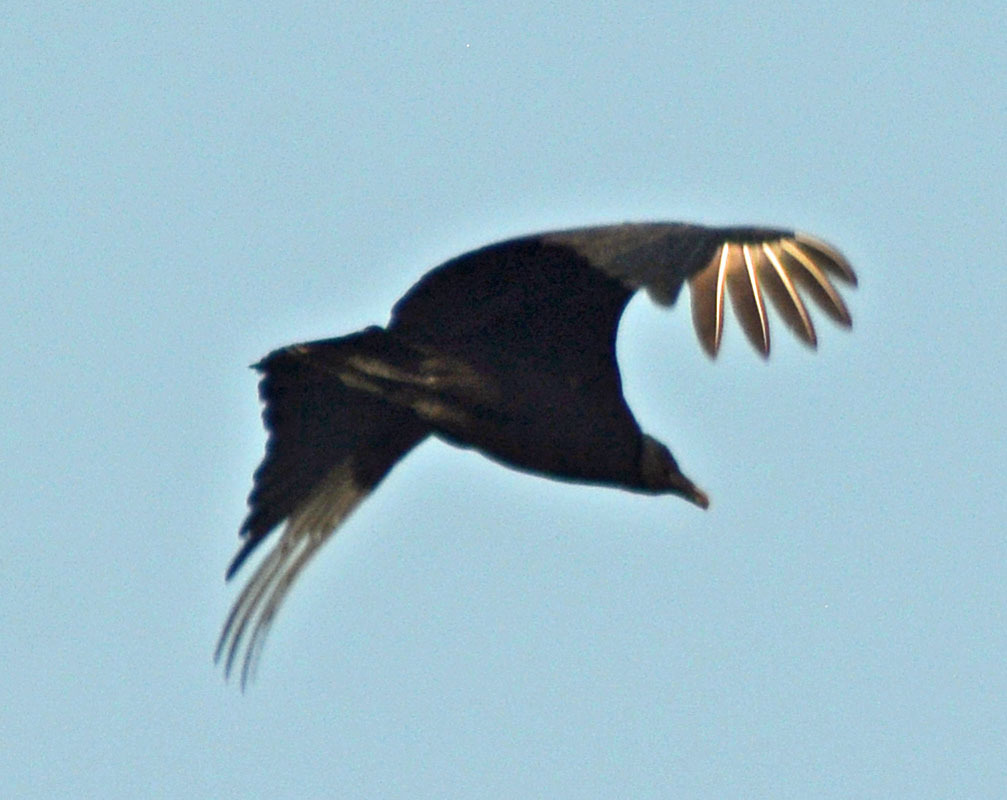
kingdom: Animalia
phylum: Chordata
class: Aves
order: Accipitriformes
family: Cathartidae
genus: Coragyps
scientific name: Coragyps atratus
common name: Black vulture
